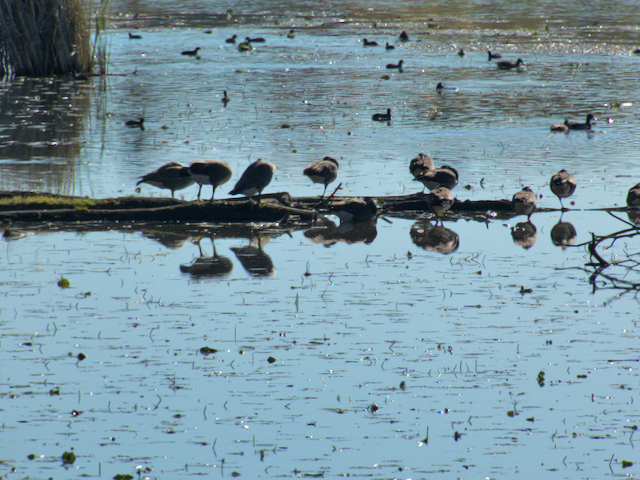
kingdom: Animalia
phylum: Chordata
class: Aves
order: Anseriformes
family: Anatidae
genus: Branta
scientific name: Branta canadensis
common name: Canada goose
